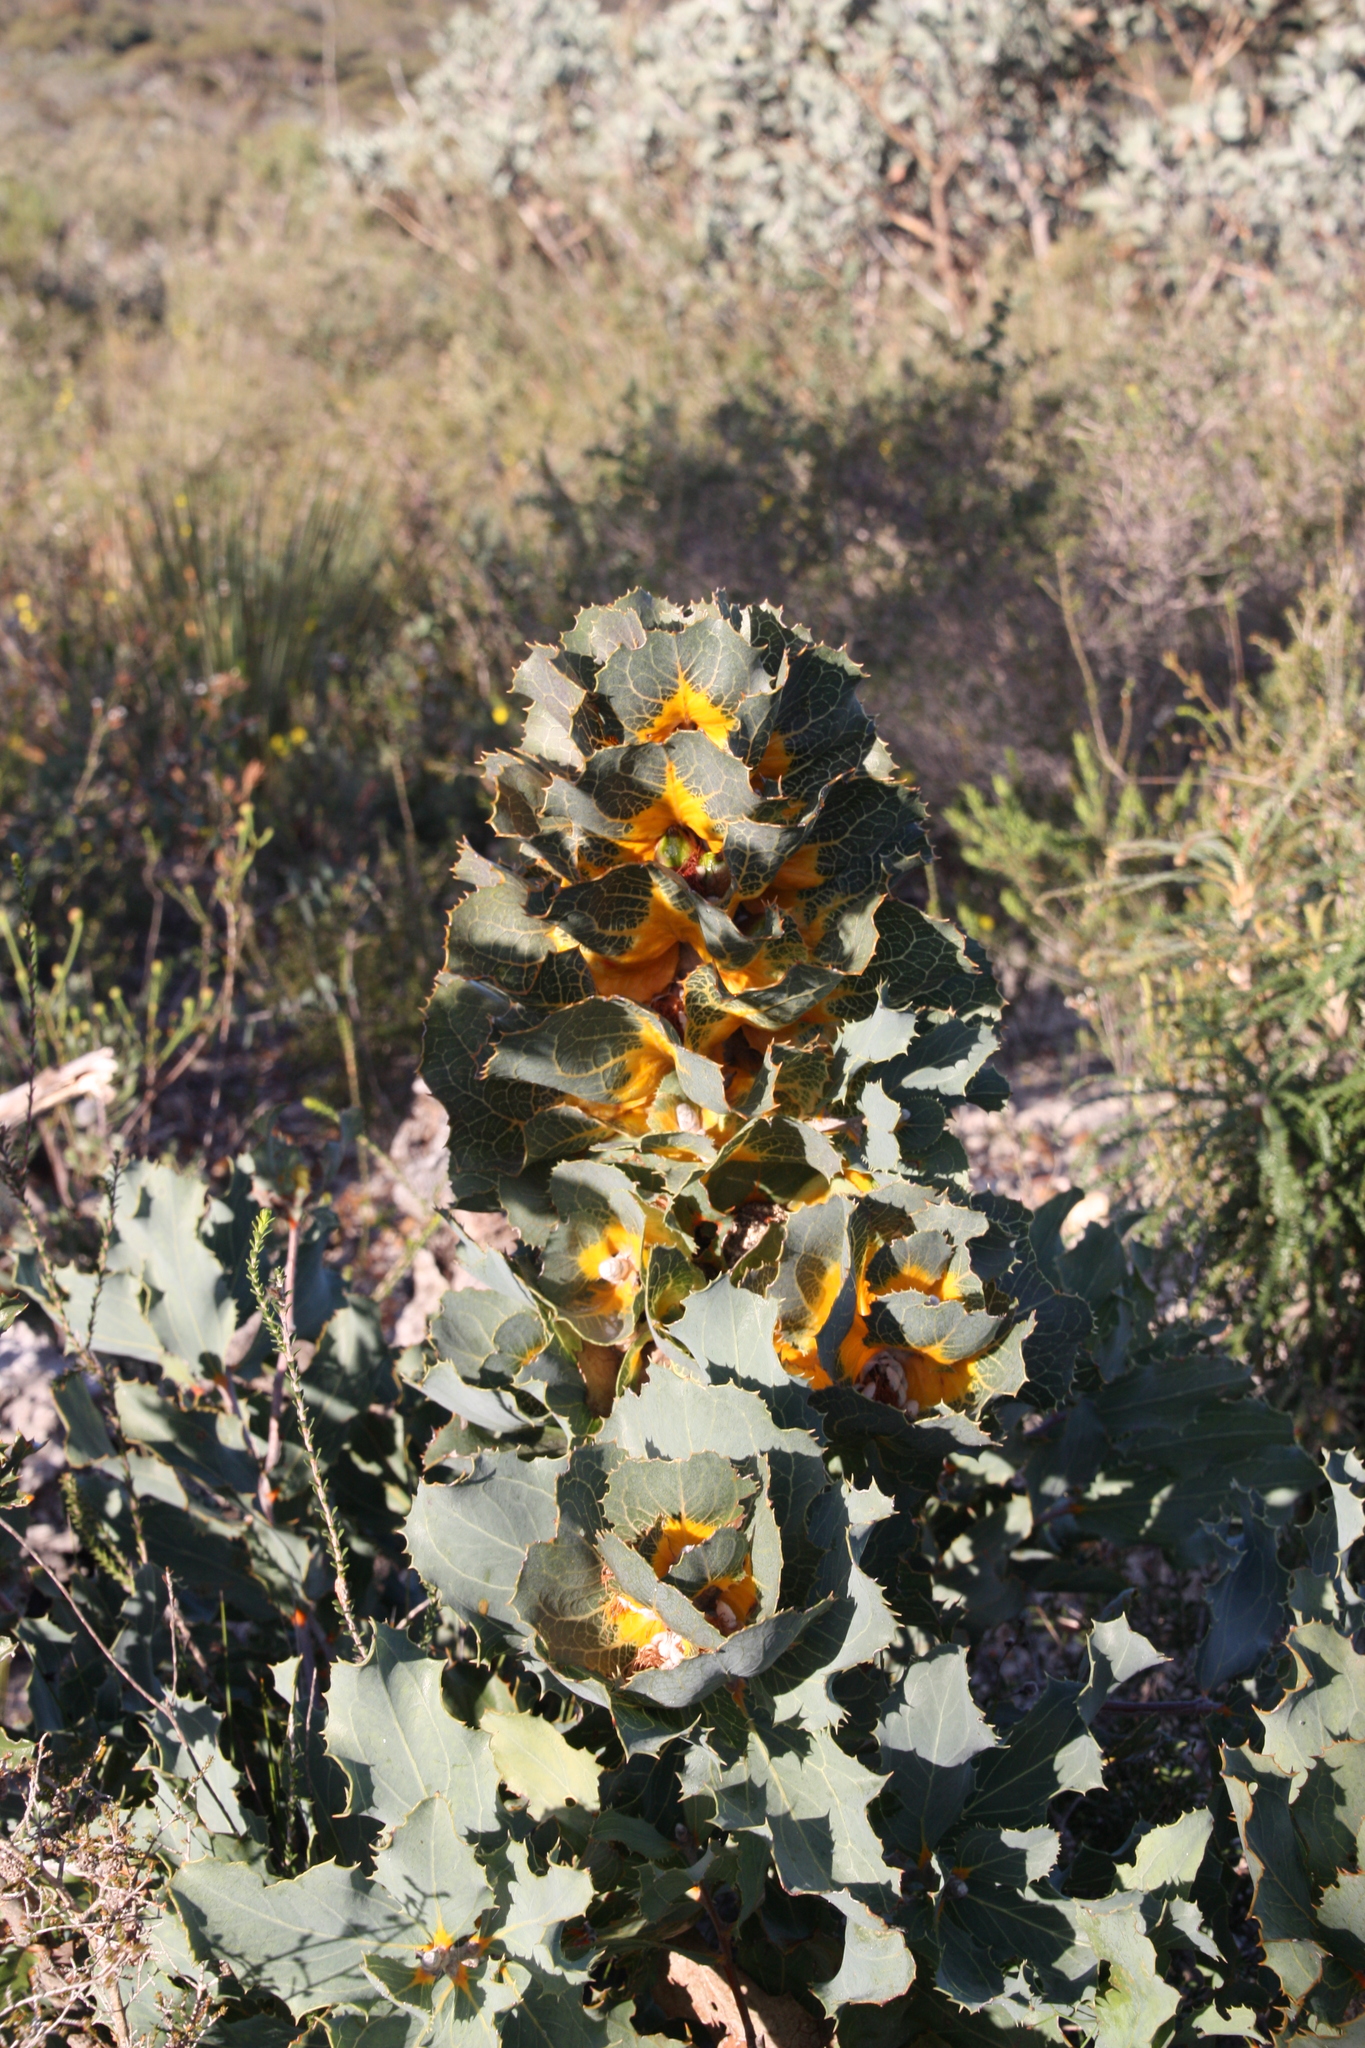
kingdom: Plantae
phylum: Tracheophyta
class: Magnoliopsida
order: Proteales
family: Proteaceae
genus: Hakea
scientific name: Hakea victoria
